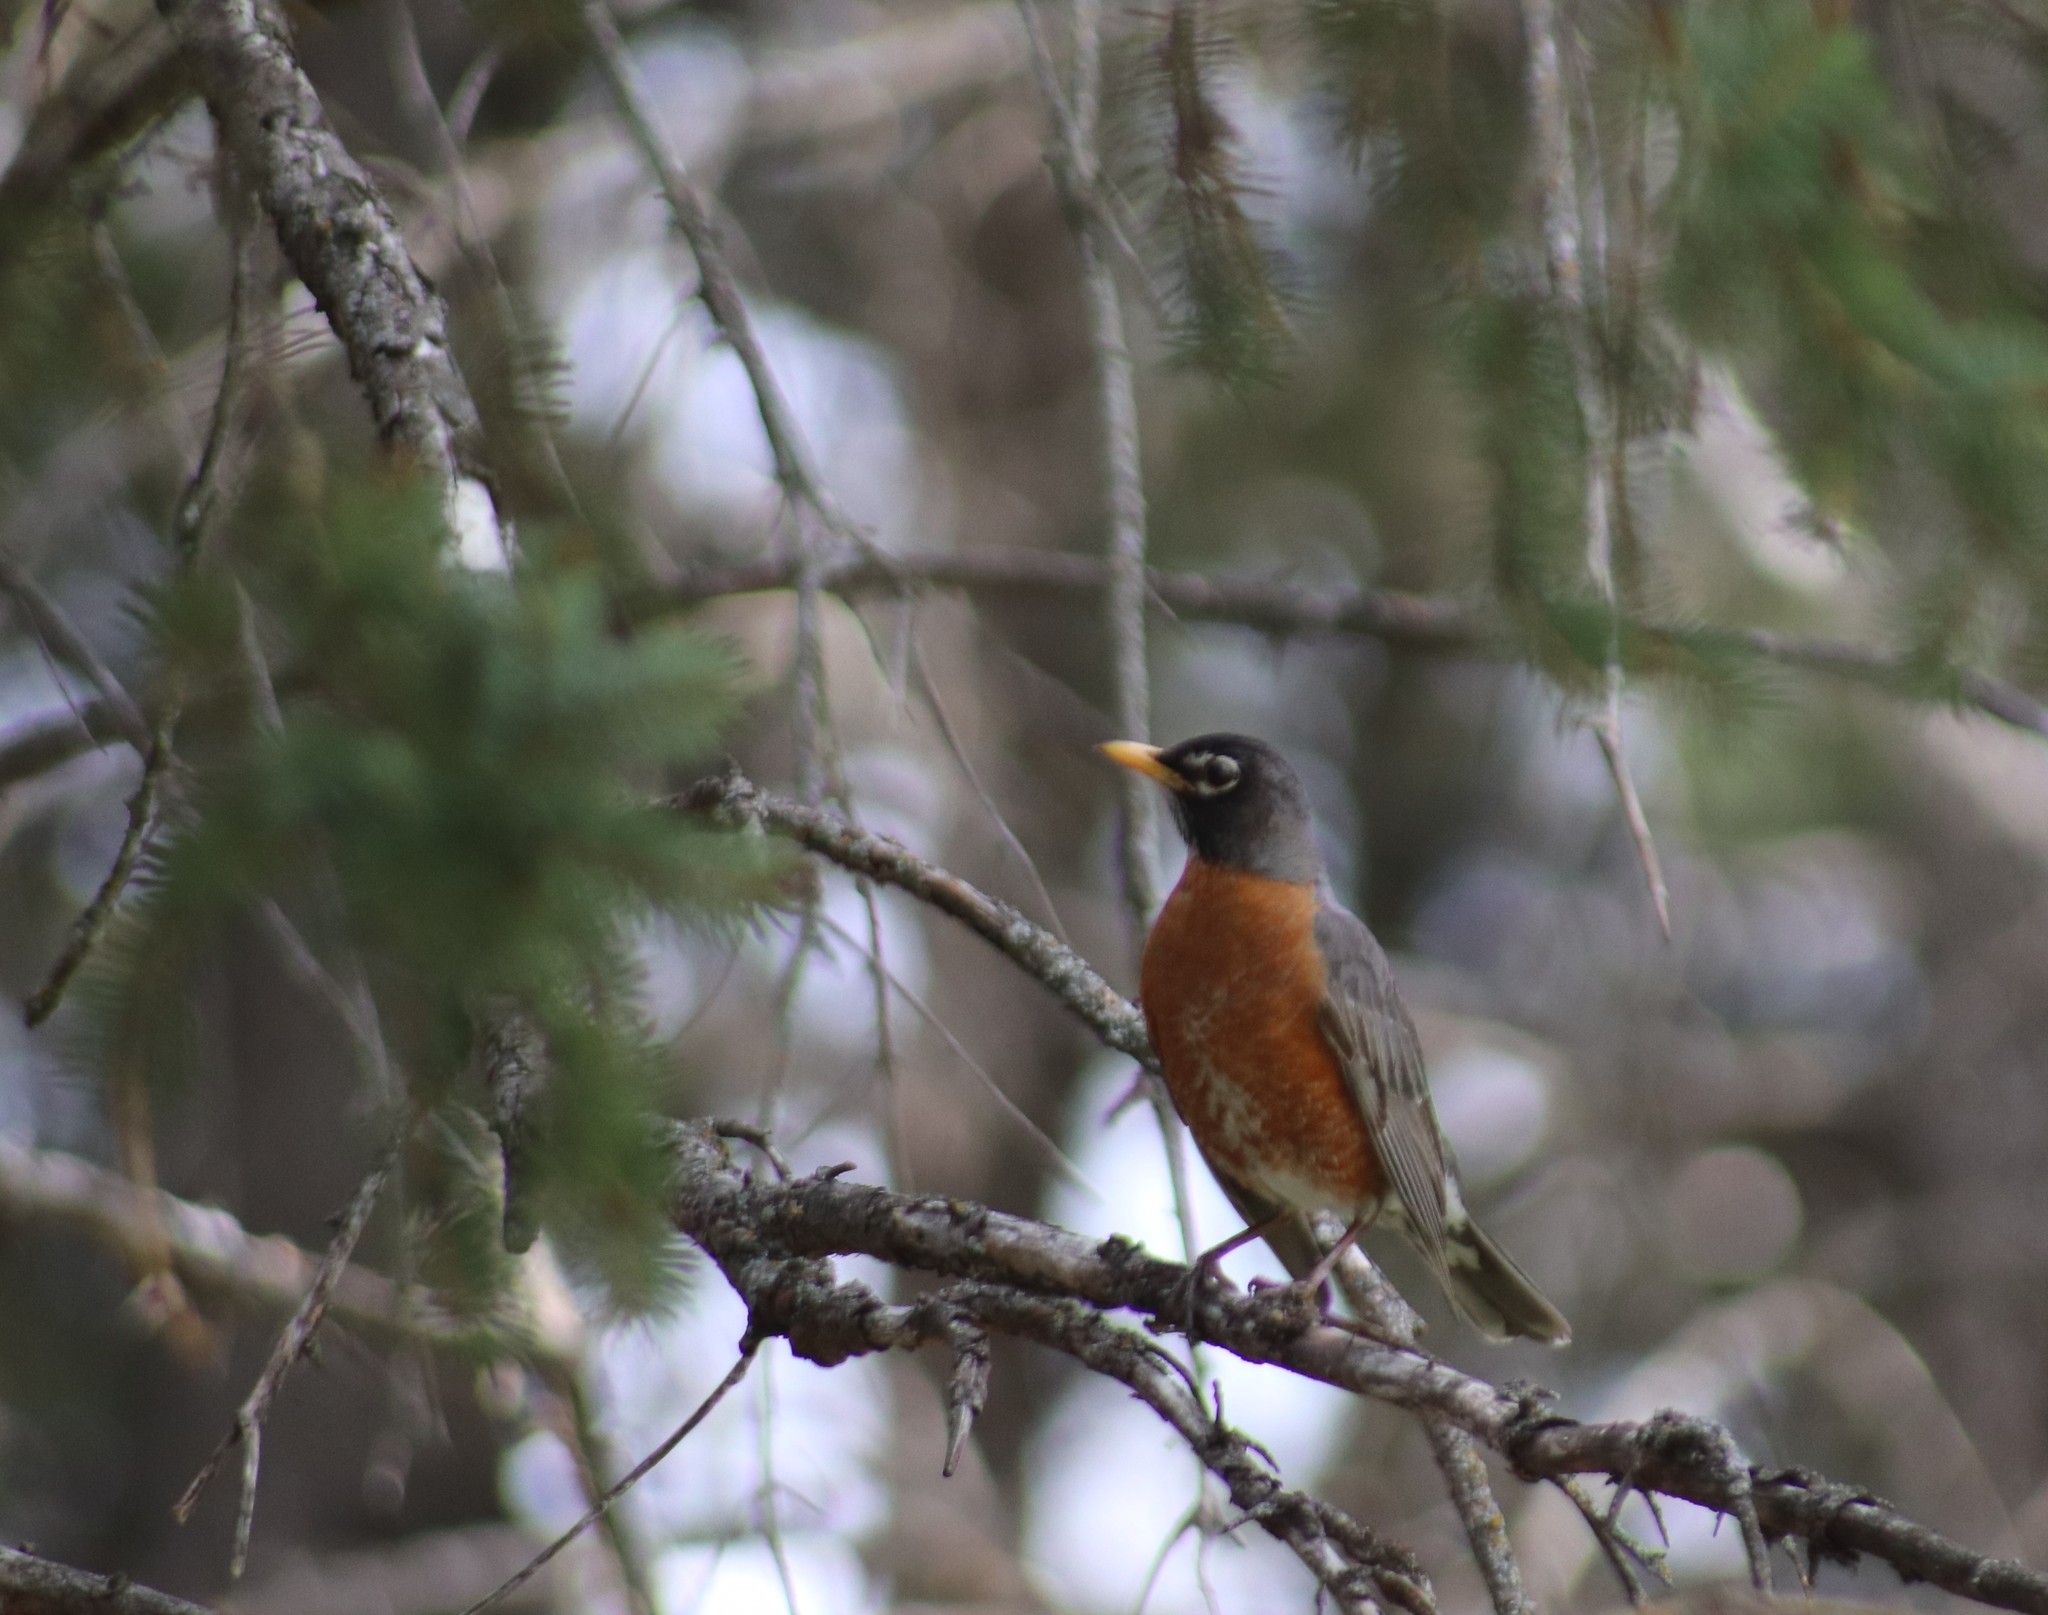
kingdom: Animalia
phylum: Chordata
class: Aves
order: Passeriformes
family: Turdidae
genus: Turdus
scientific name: Turdus migratorius
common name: American robin
